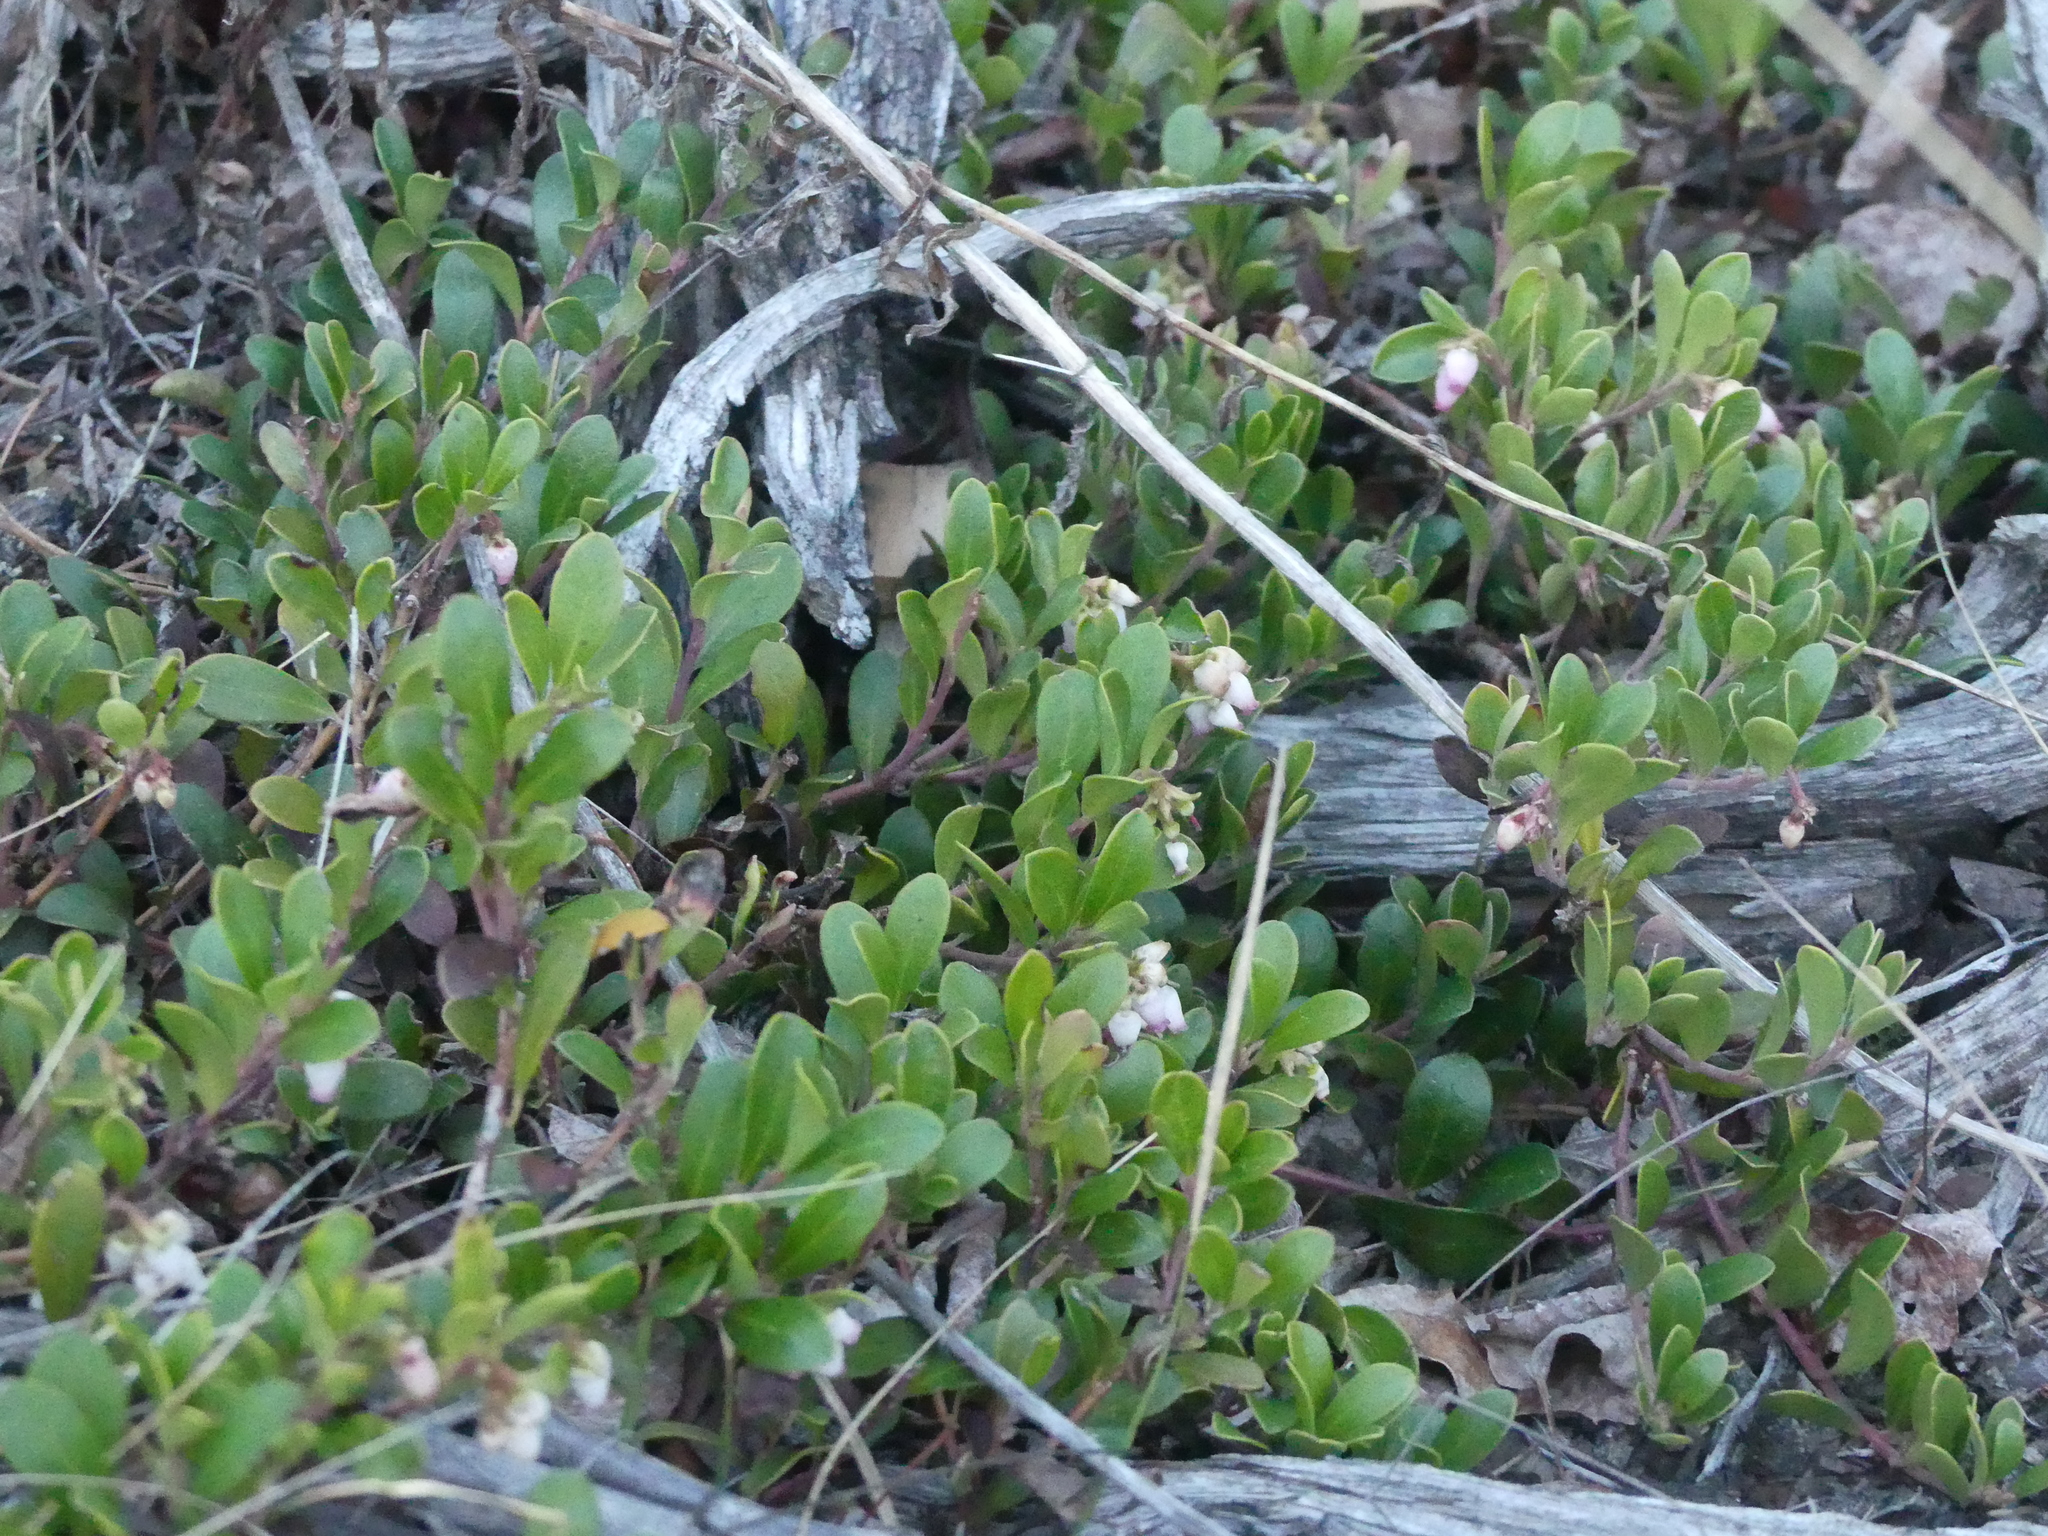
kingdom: Plantae
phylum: Tracheophyta
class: Magnoliopsida
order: Ericales
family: Ericaceae
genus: Arctostaphylos
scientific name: Arctostaphylos uva-ursi
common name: Bearberry
